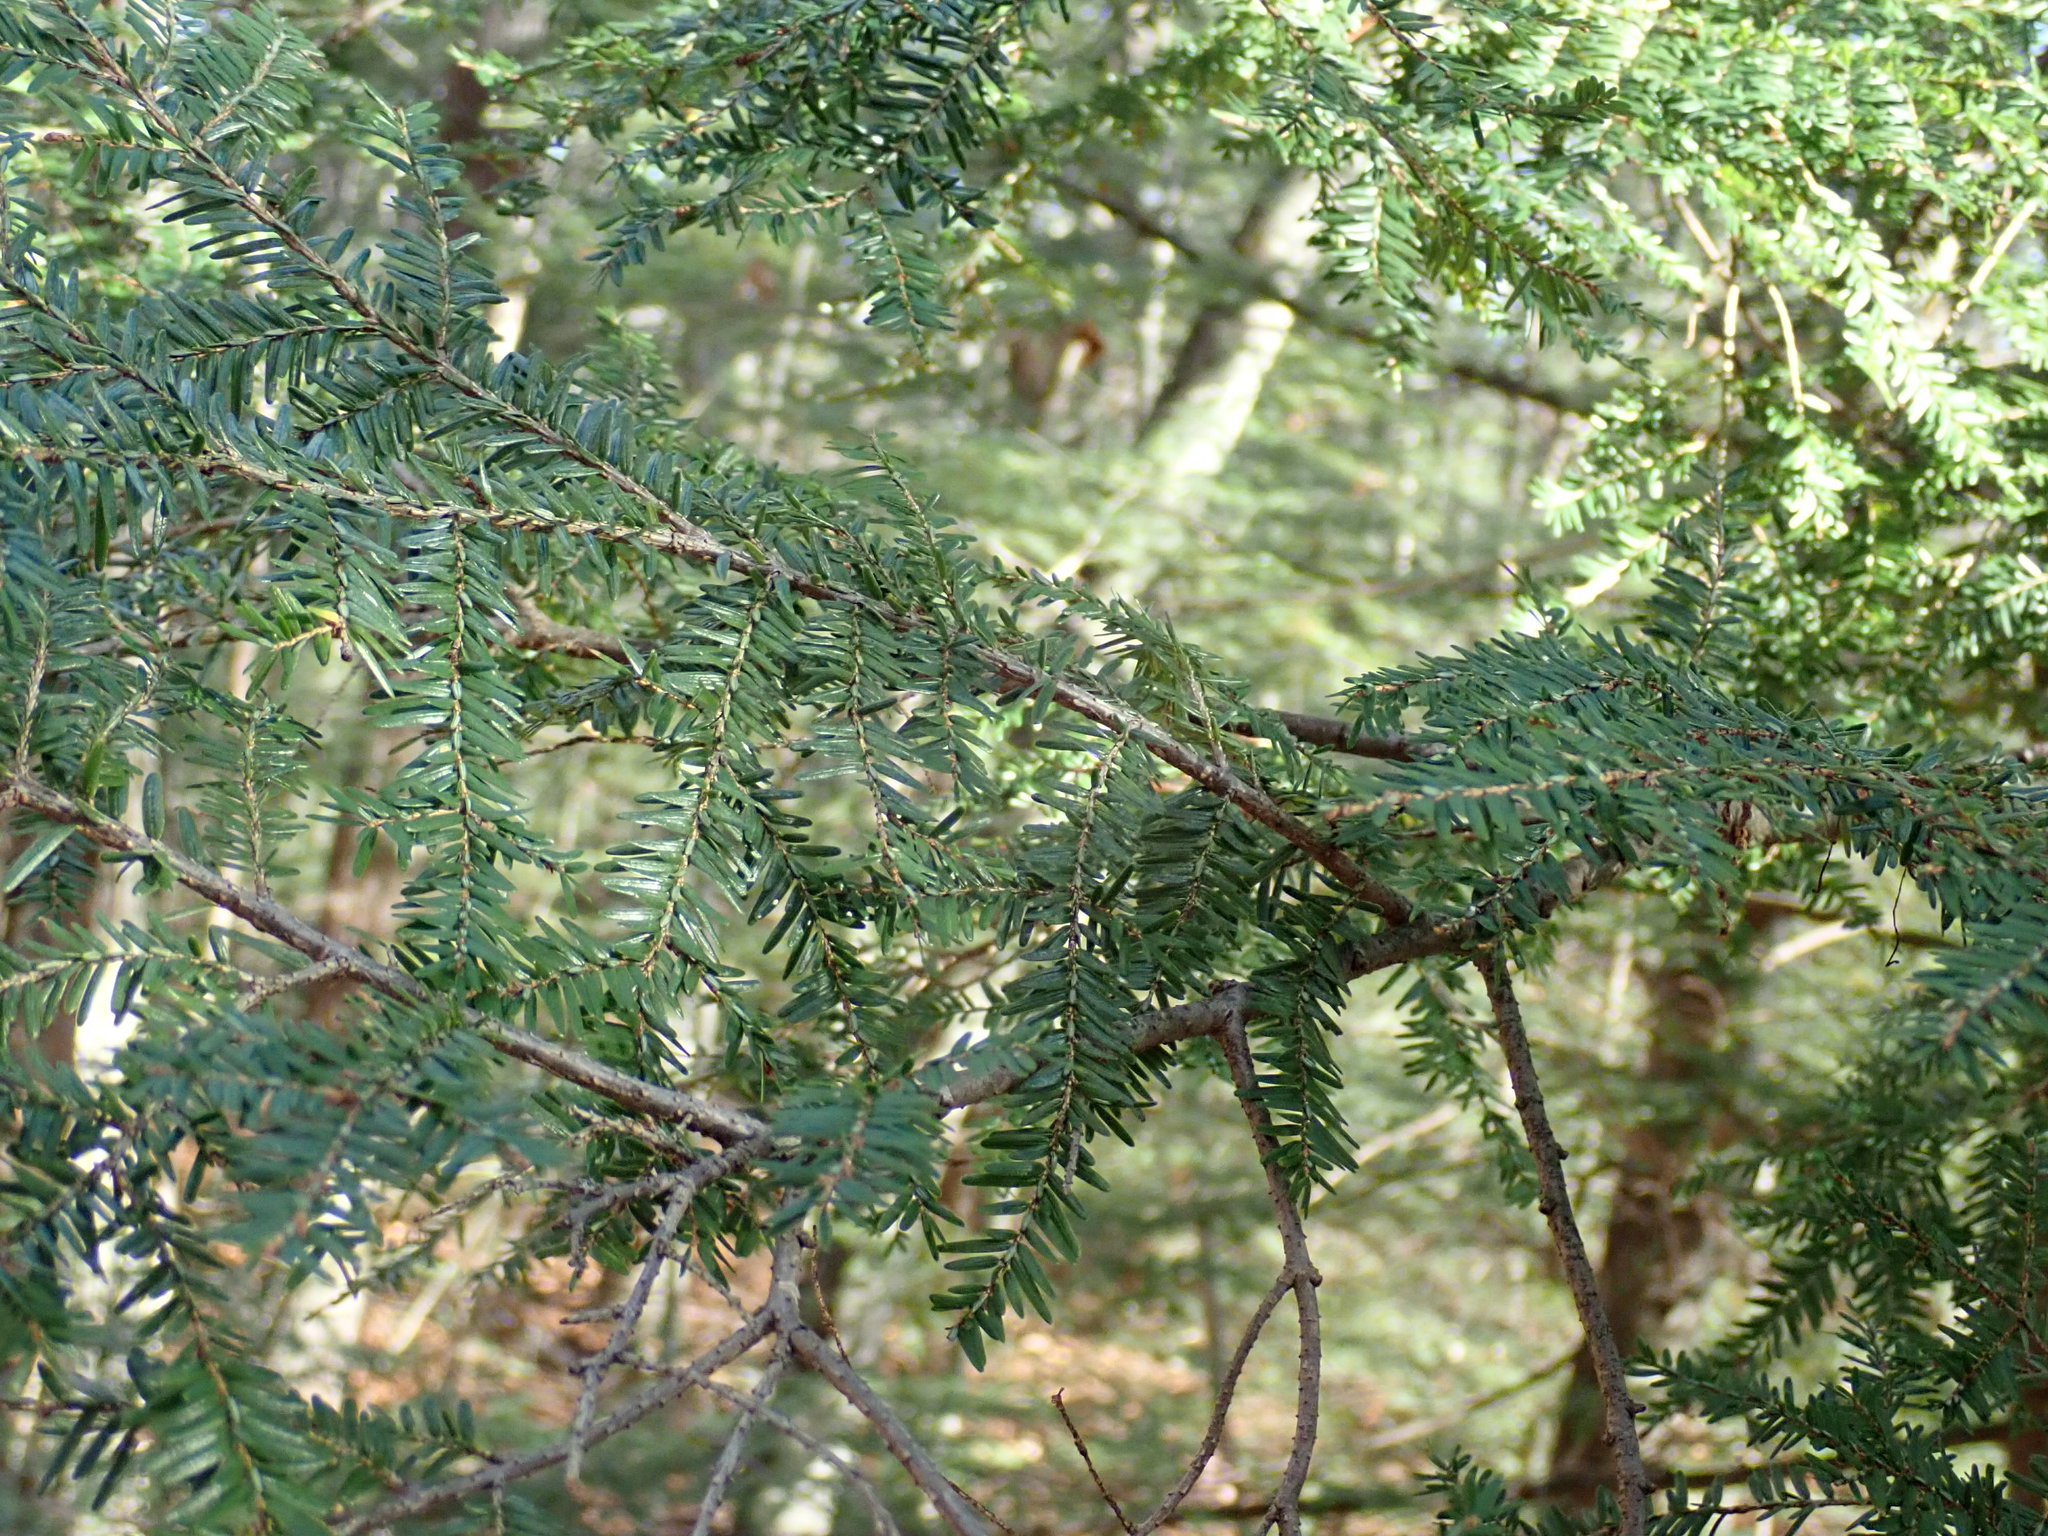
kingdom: Plantae
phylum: Tracheophyta
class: Pinopsida
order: Pinales
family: Pinaceae
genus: Tsuga
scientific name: Tsuga canadensis
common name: Eastern hemlock
